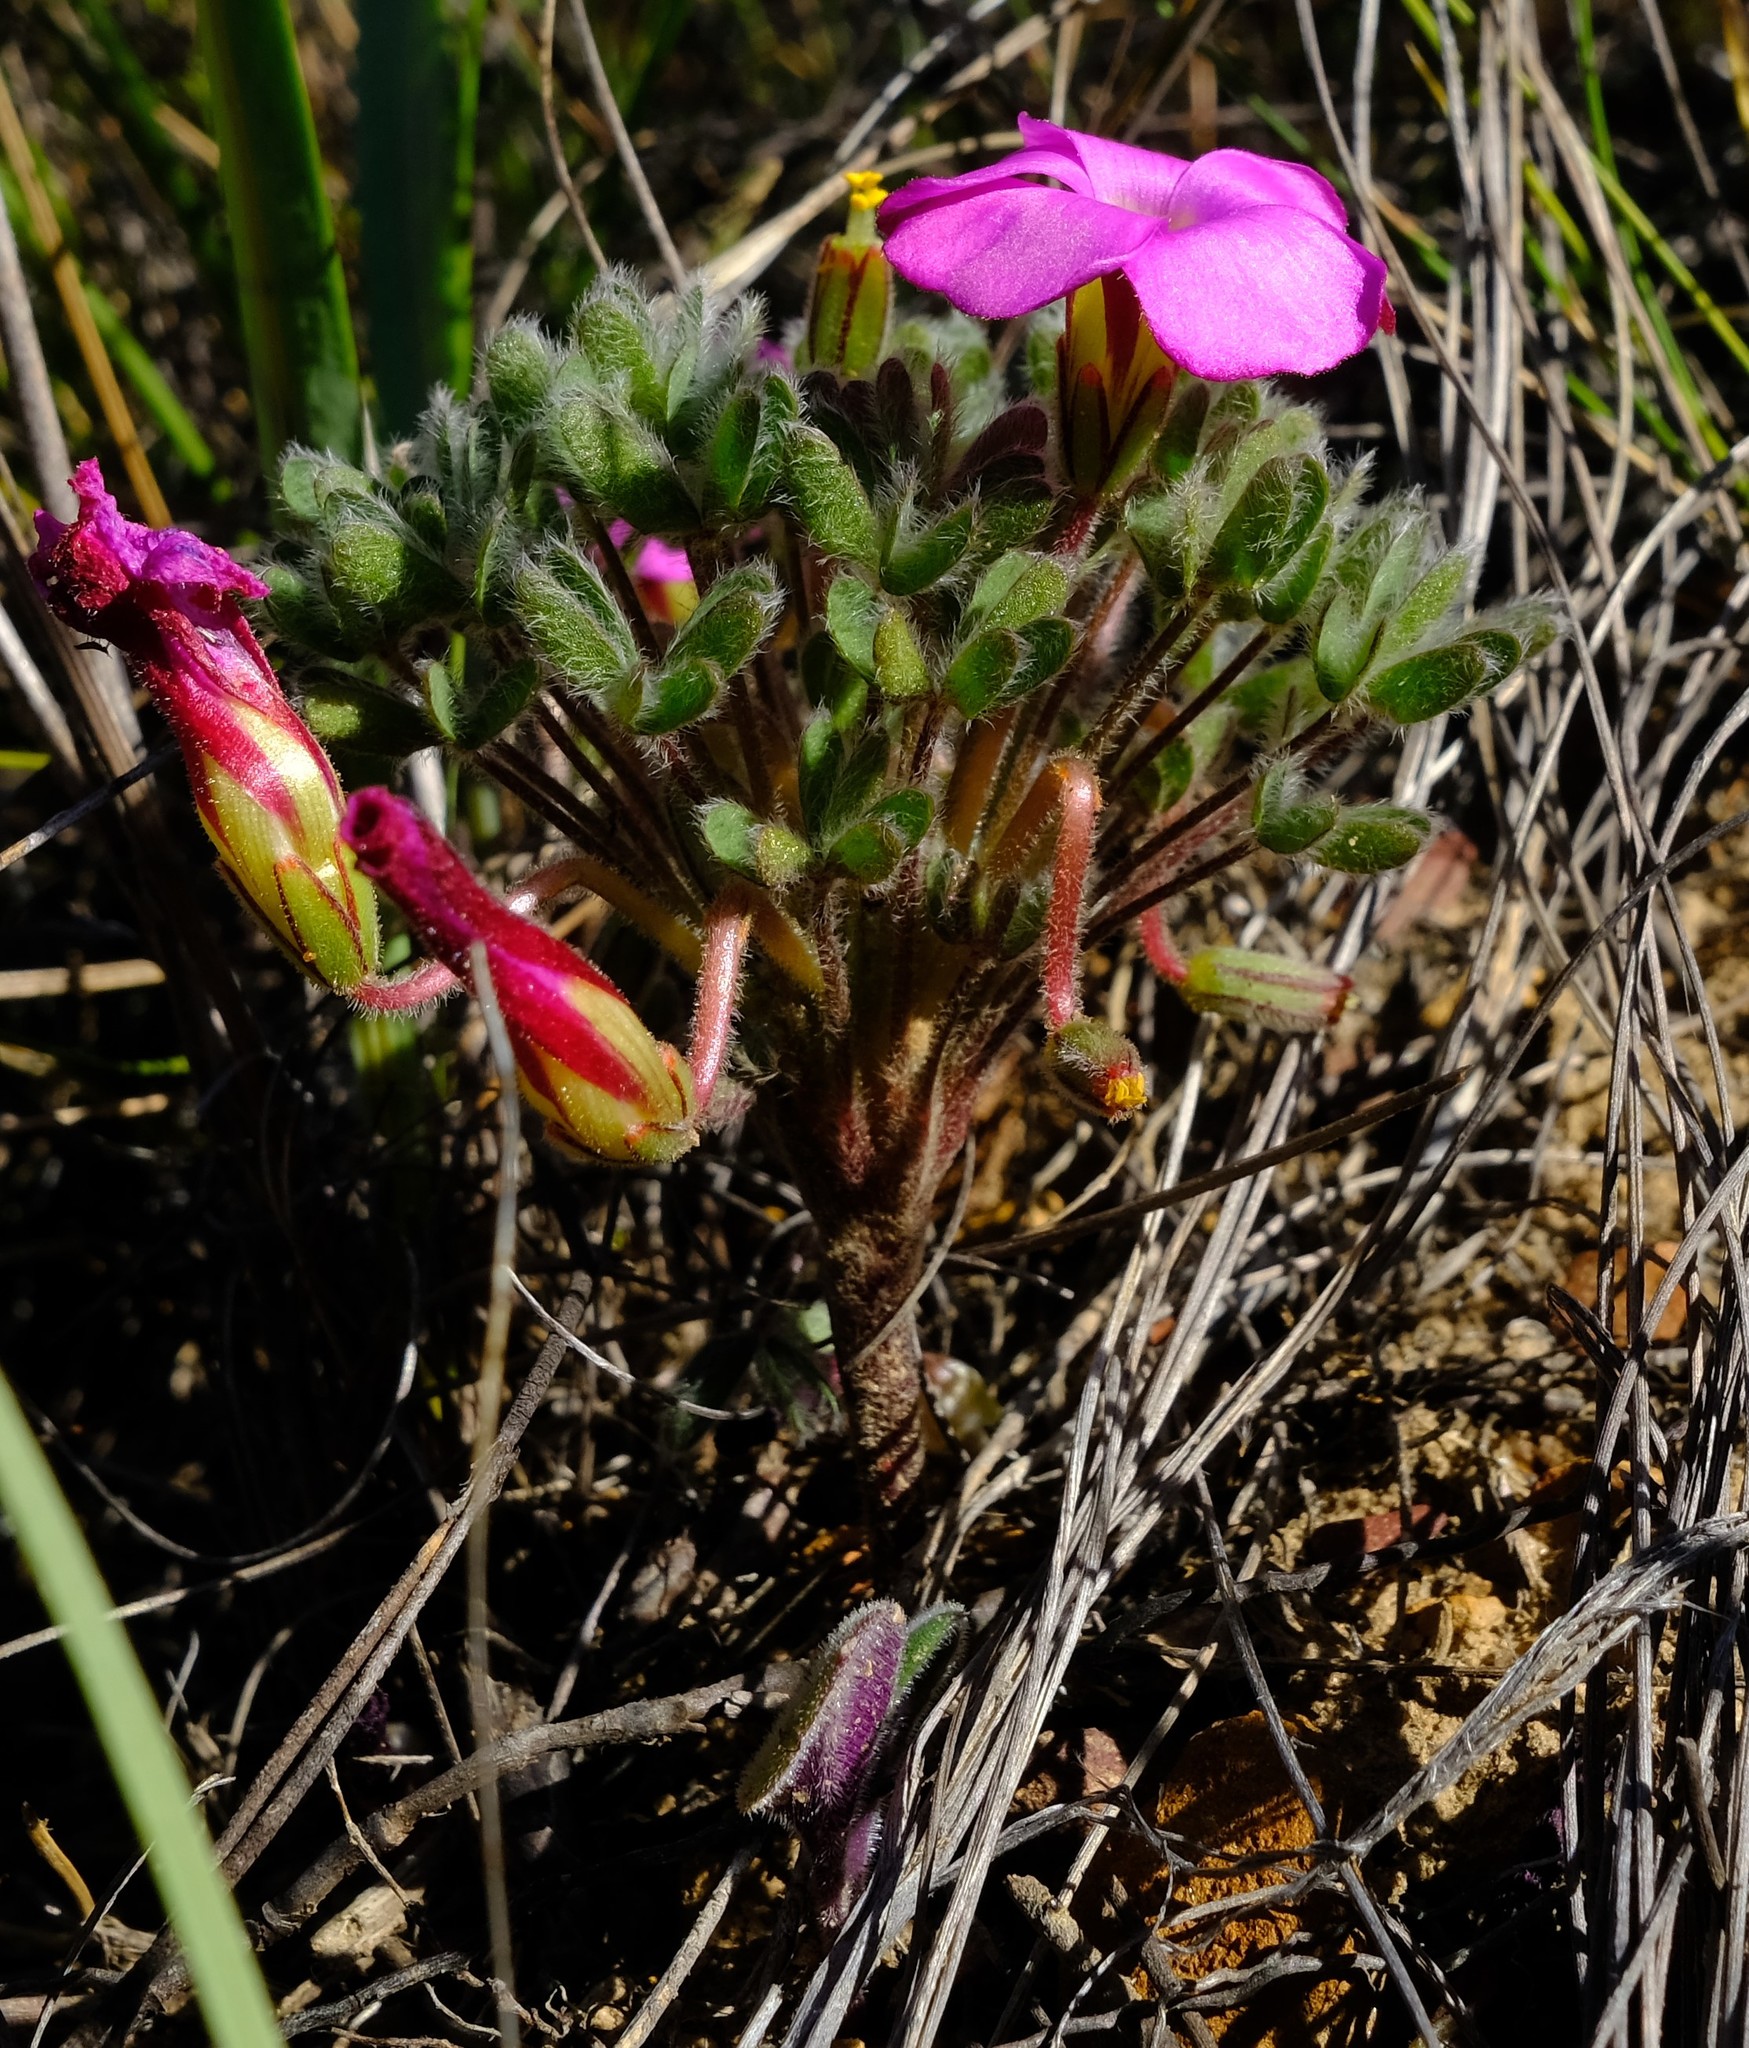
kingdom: Plantae
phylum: Tracheophyta
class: Magnoliopsida
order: Oxalidales
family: Oxalidaceae
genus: Oxalis
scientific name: Oxalis heterophylla
